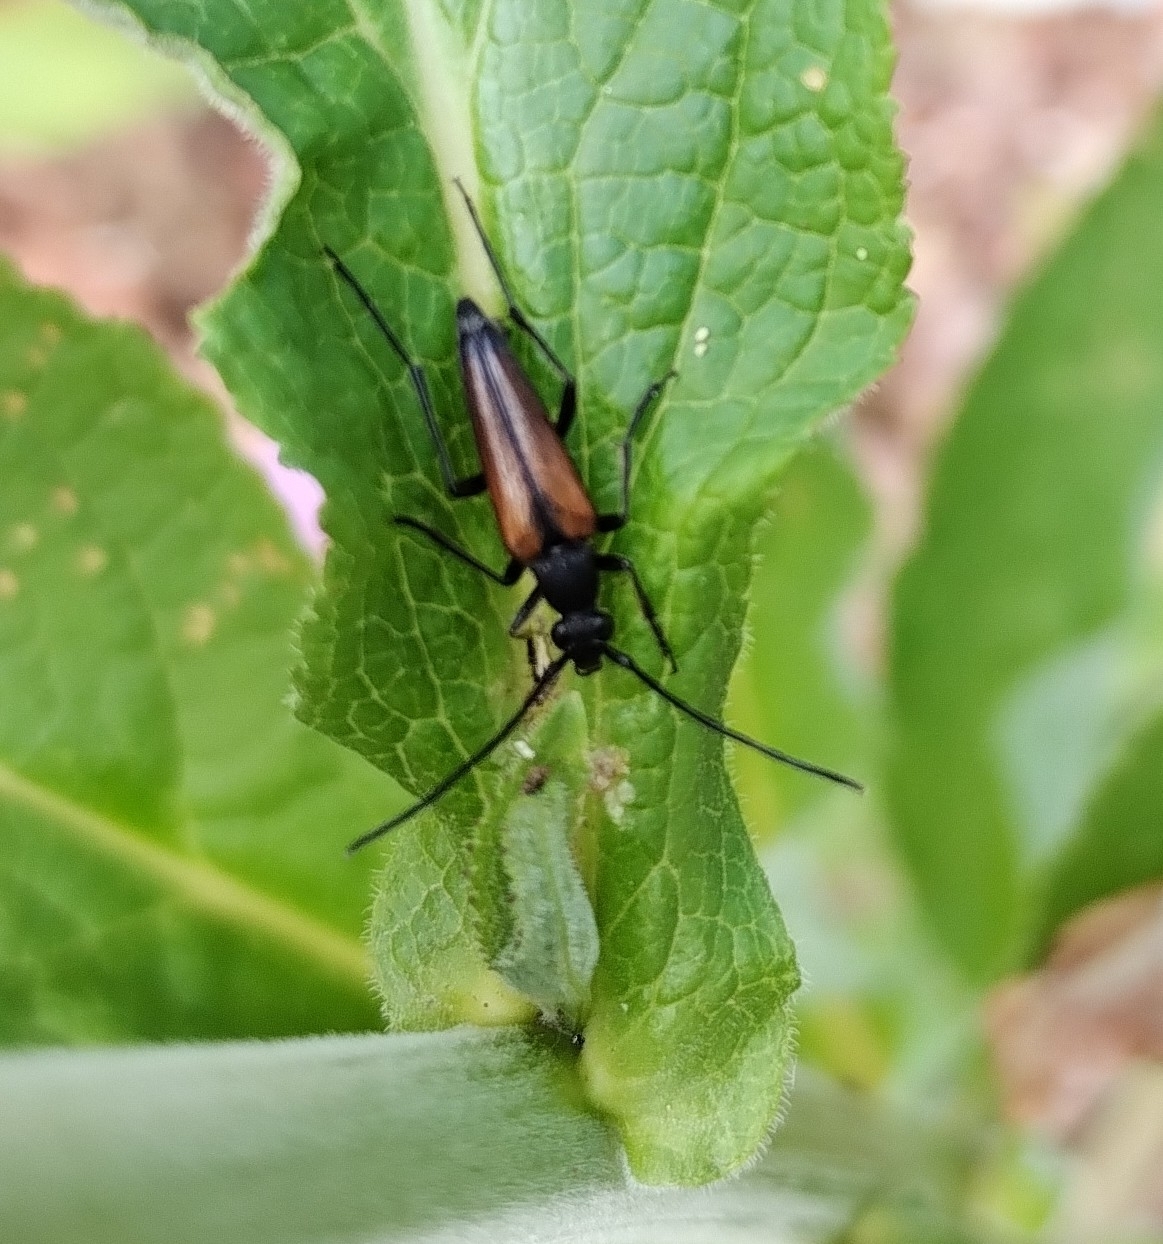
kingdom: Animalia
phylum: Arthropoda
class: Insecta
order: Coleoptera
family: Cerambycidae
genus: Stenurella
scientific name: Stenurella melanura
